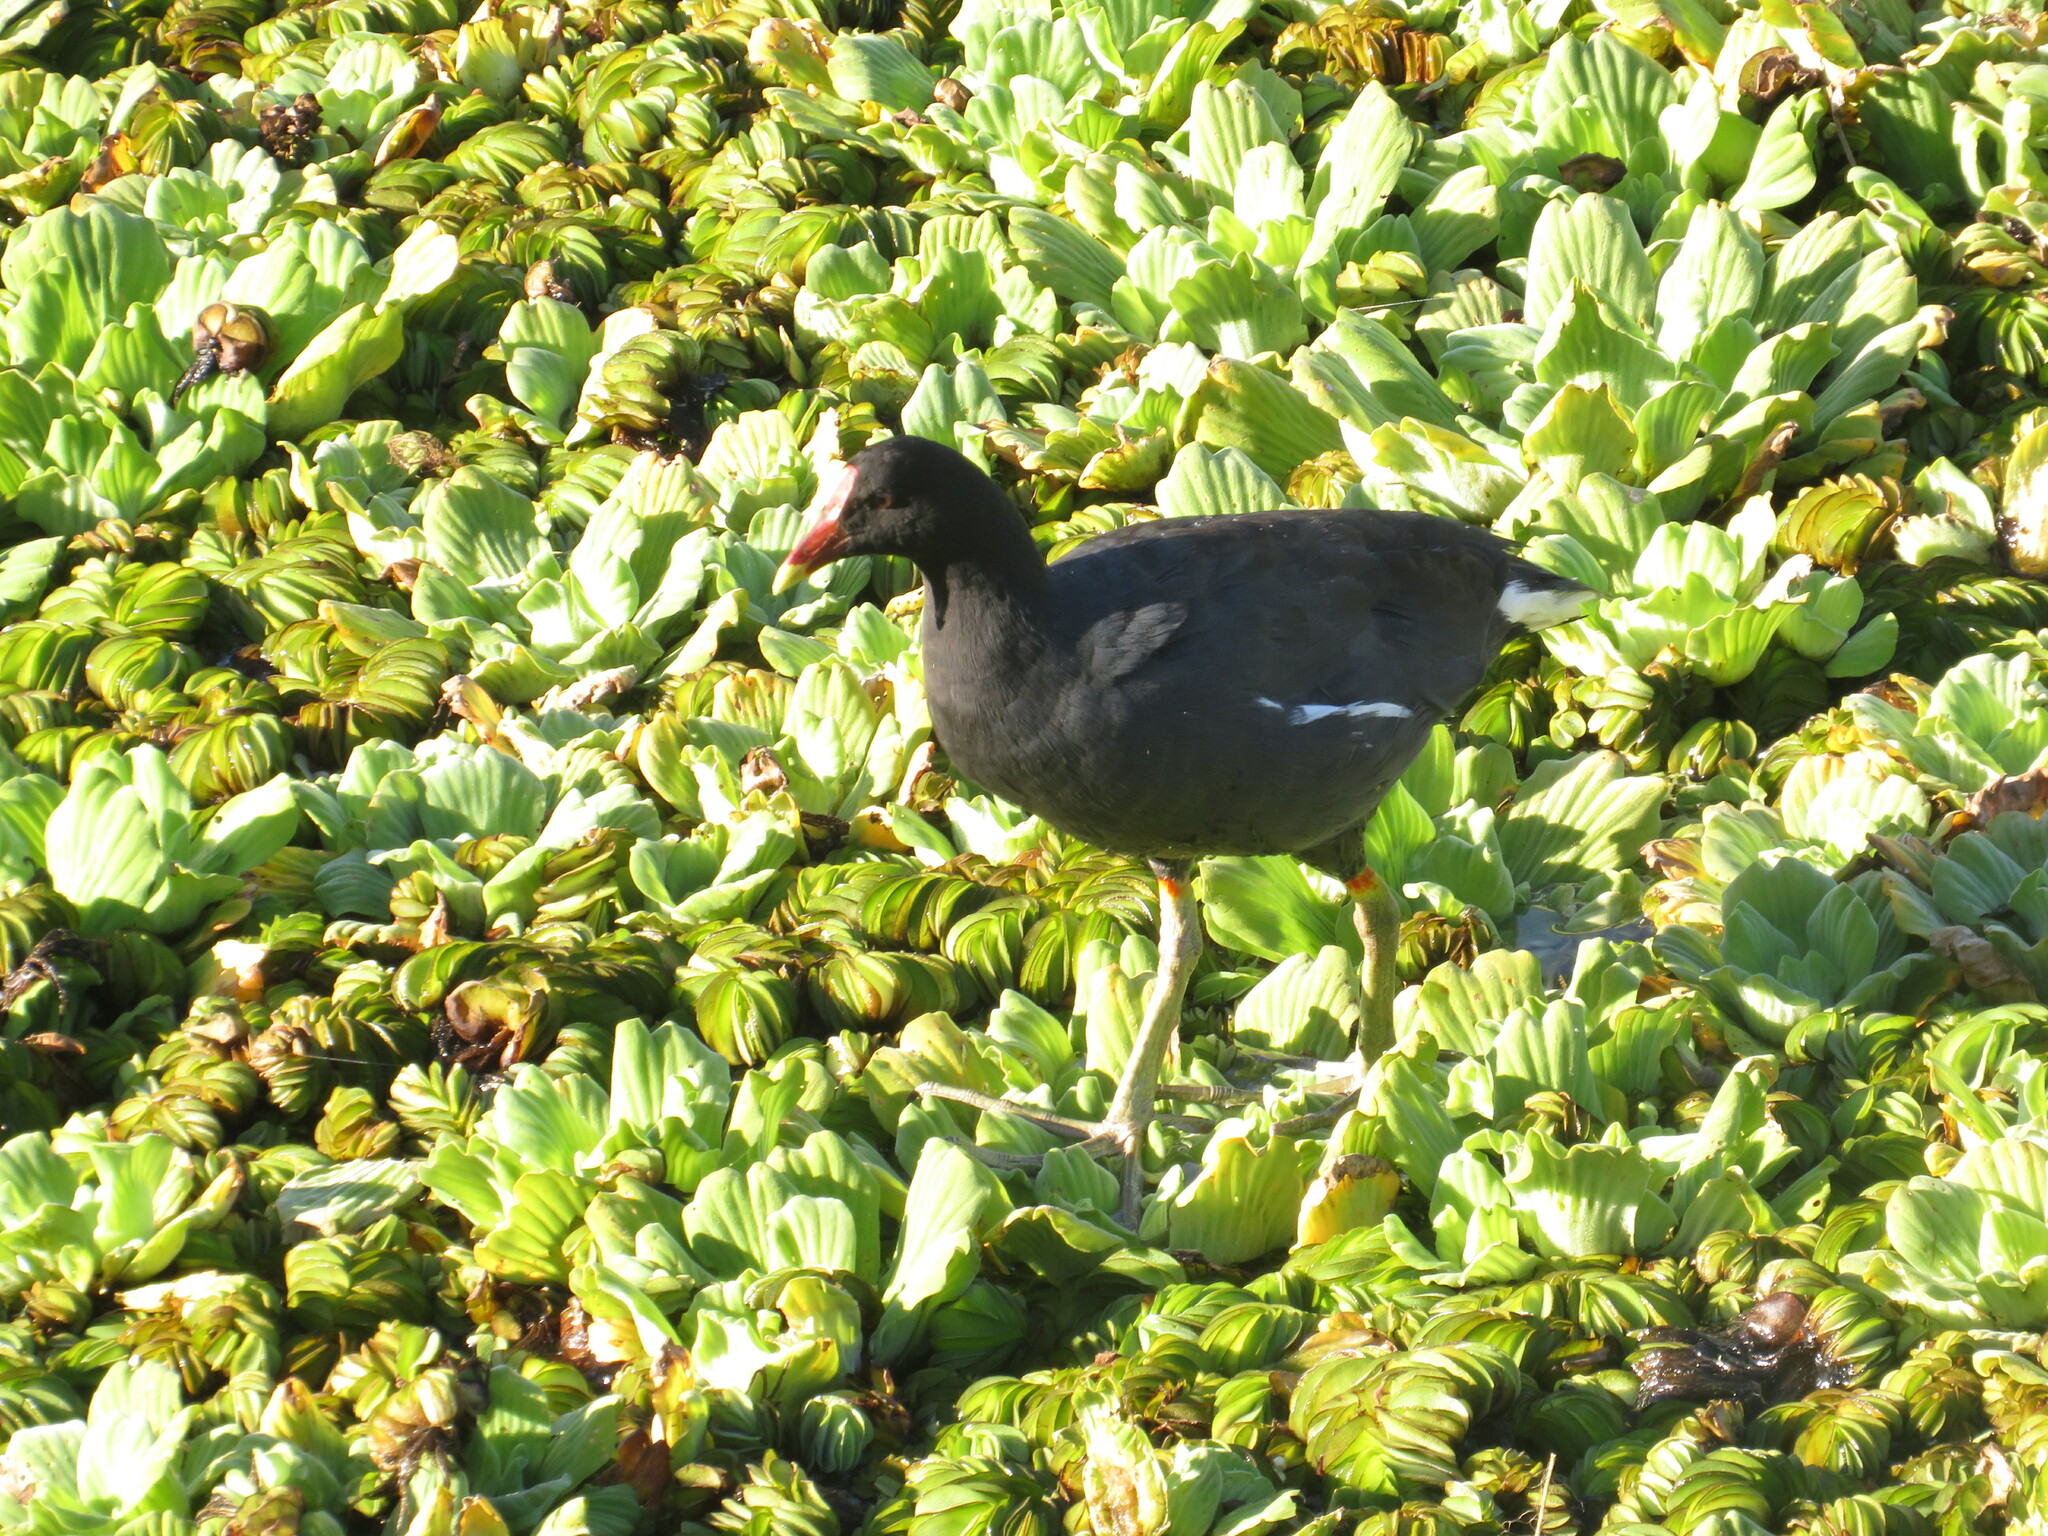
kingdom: Animalia
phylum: Chordata
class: Aves
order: Gruiformes
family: Rallidae
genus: Gallinula
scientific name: Gallinula chloropus
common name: Common moorhen
